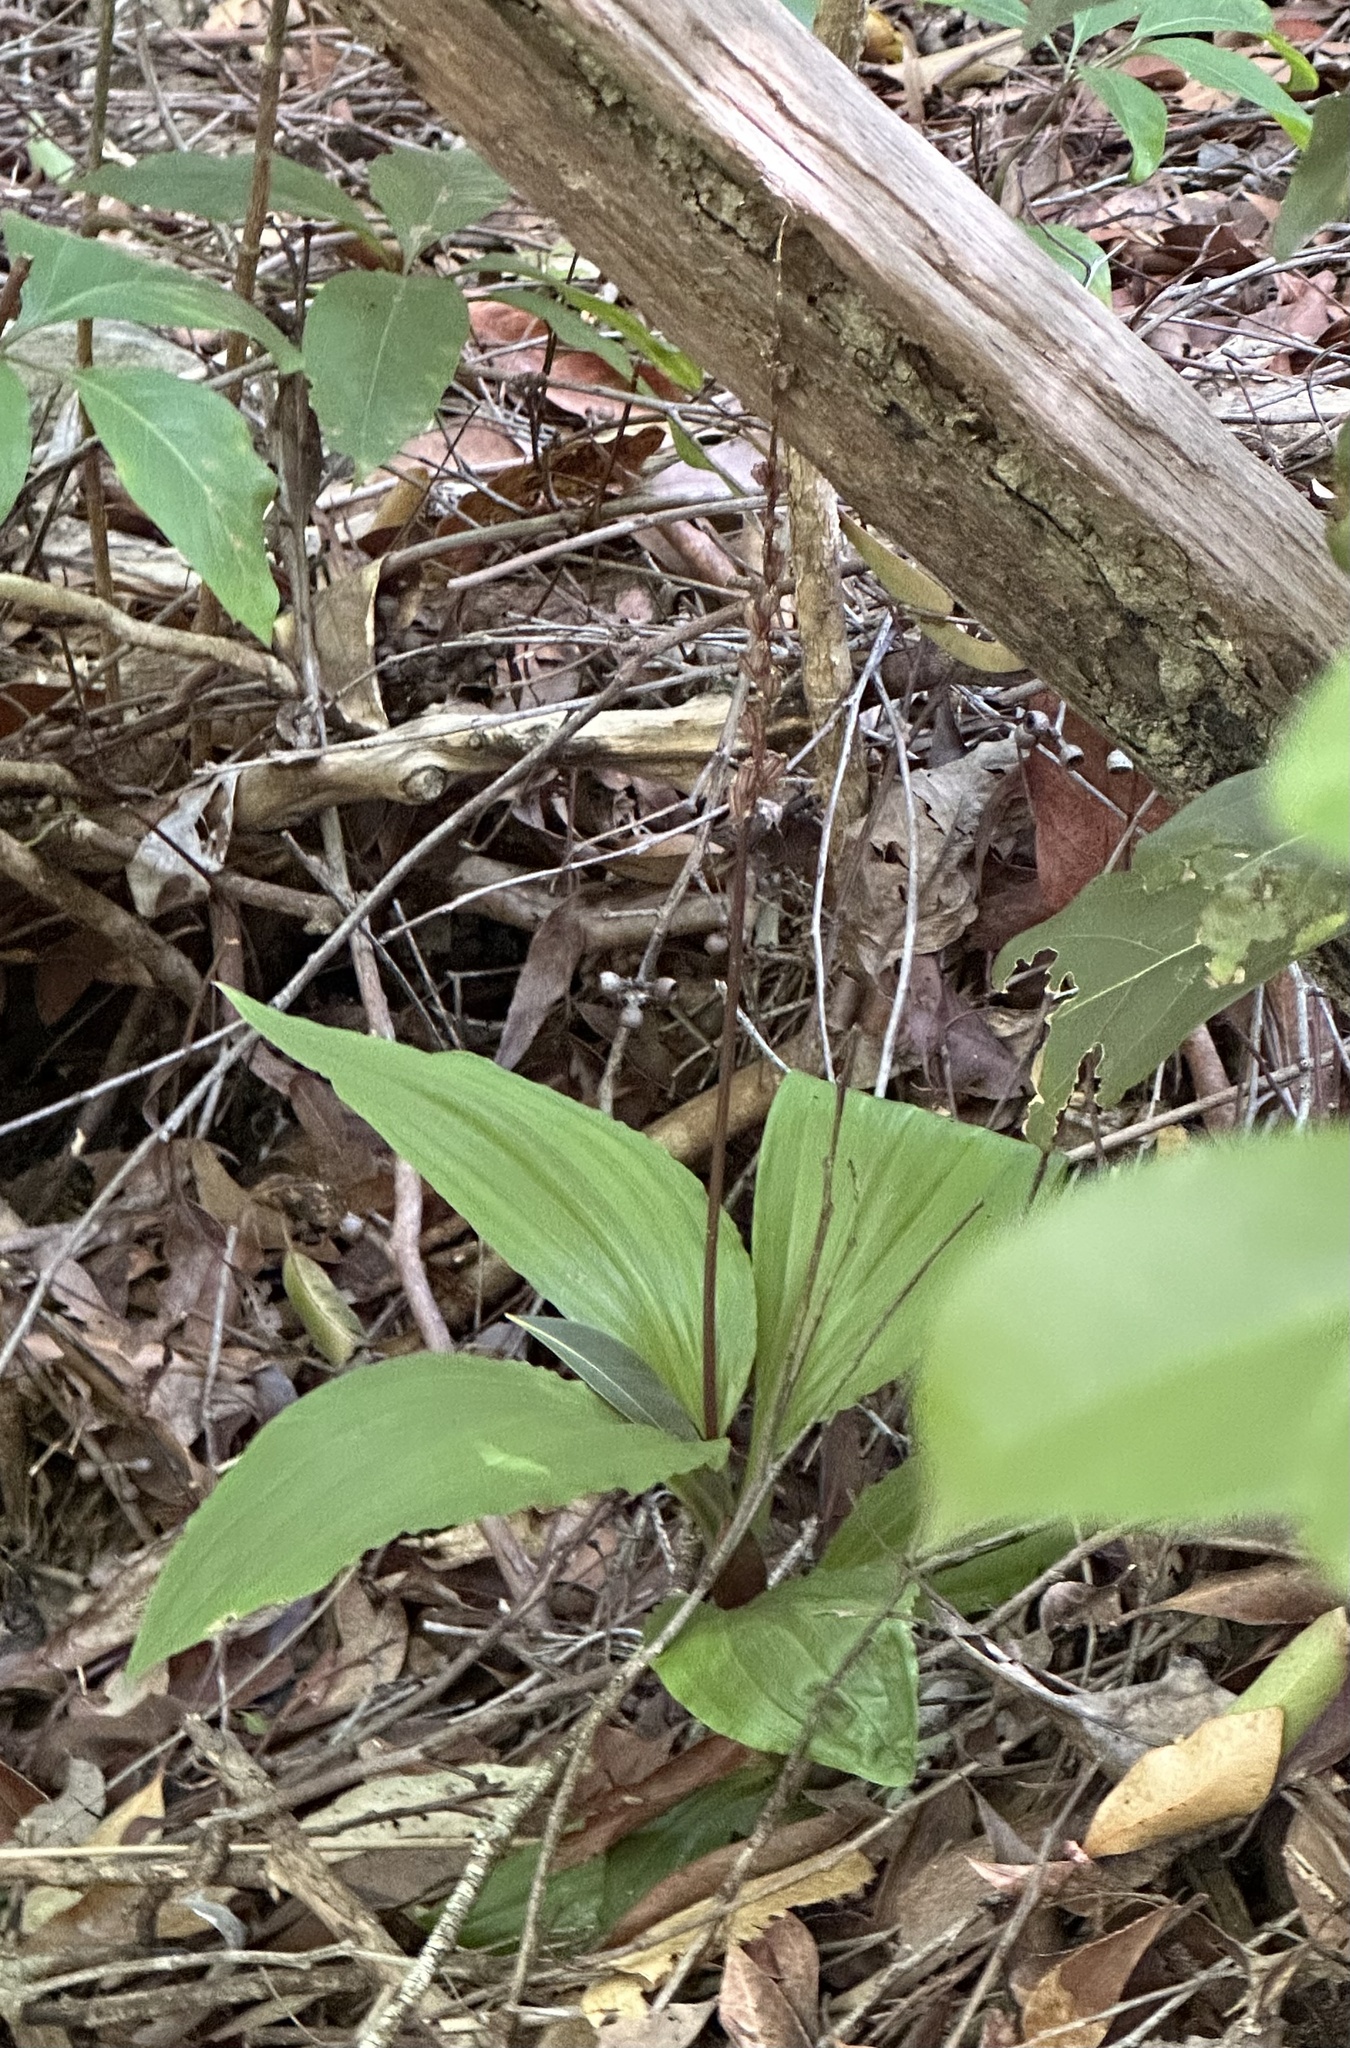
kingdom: Plantae
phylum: Tracheophyta
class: Liliopsida
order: Asparagales
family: Orchidaceae
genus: Dienia
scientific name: Dienia ophrydis
